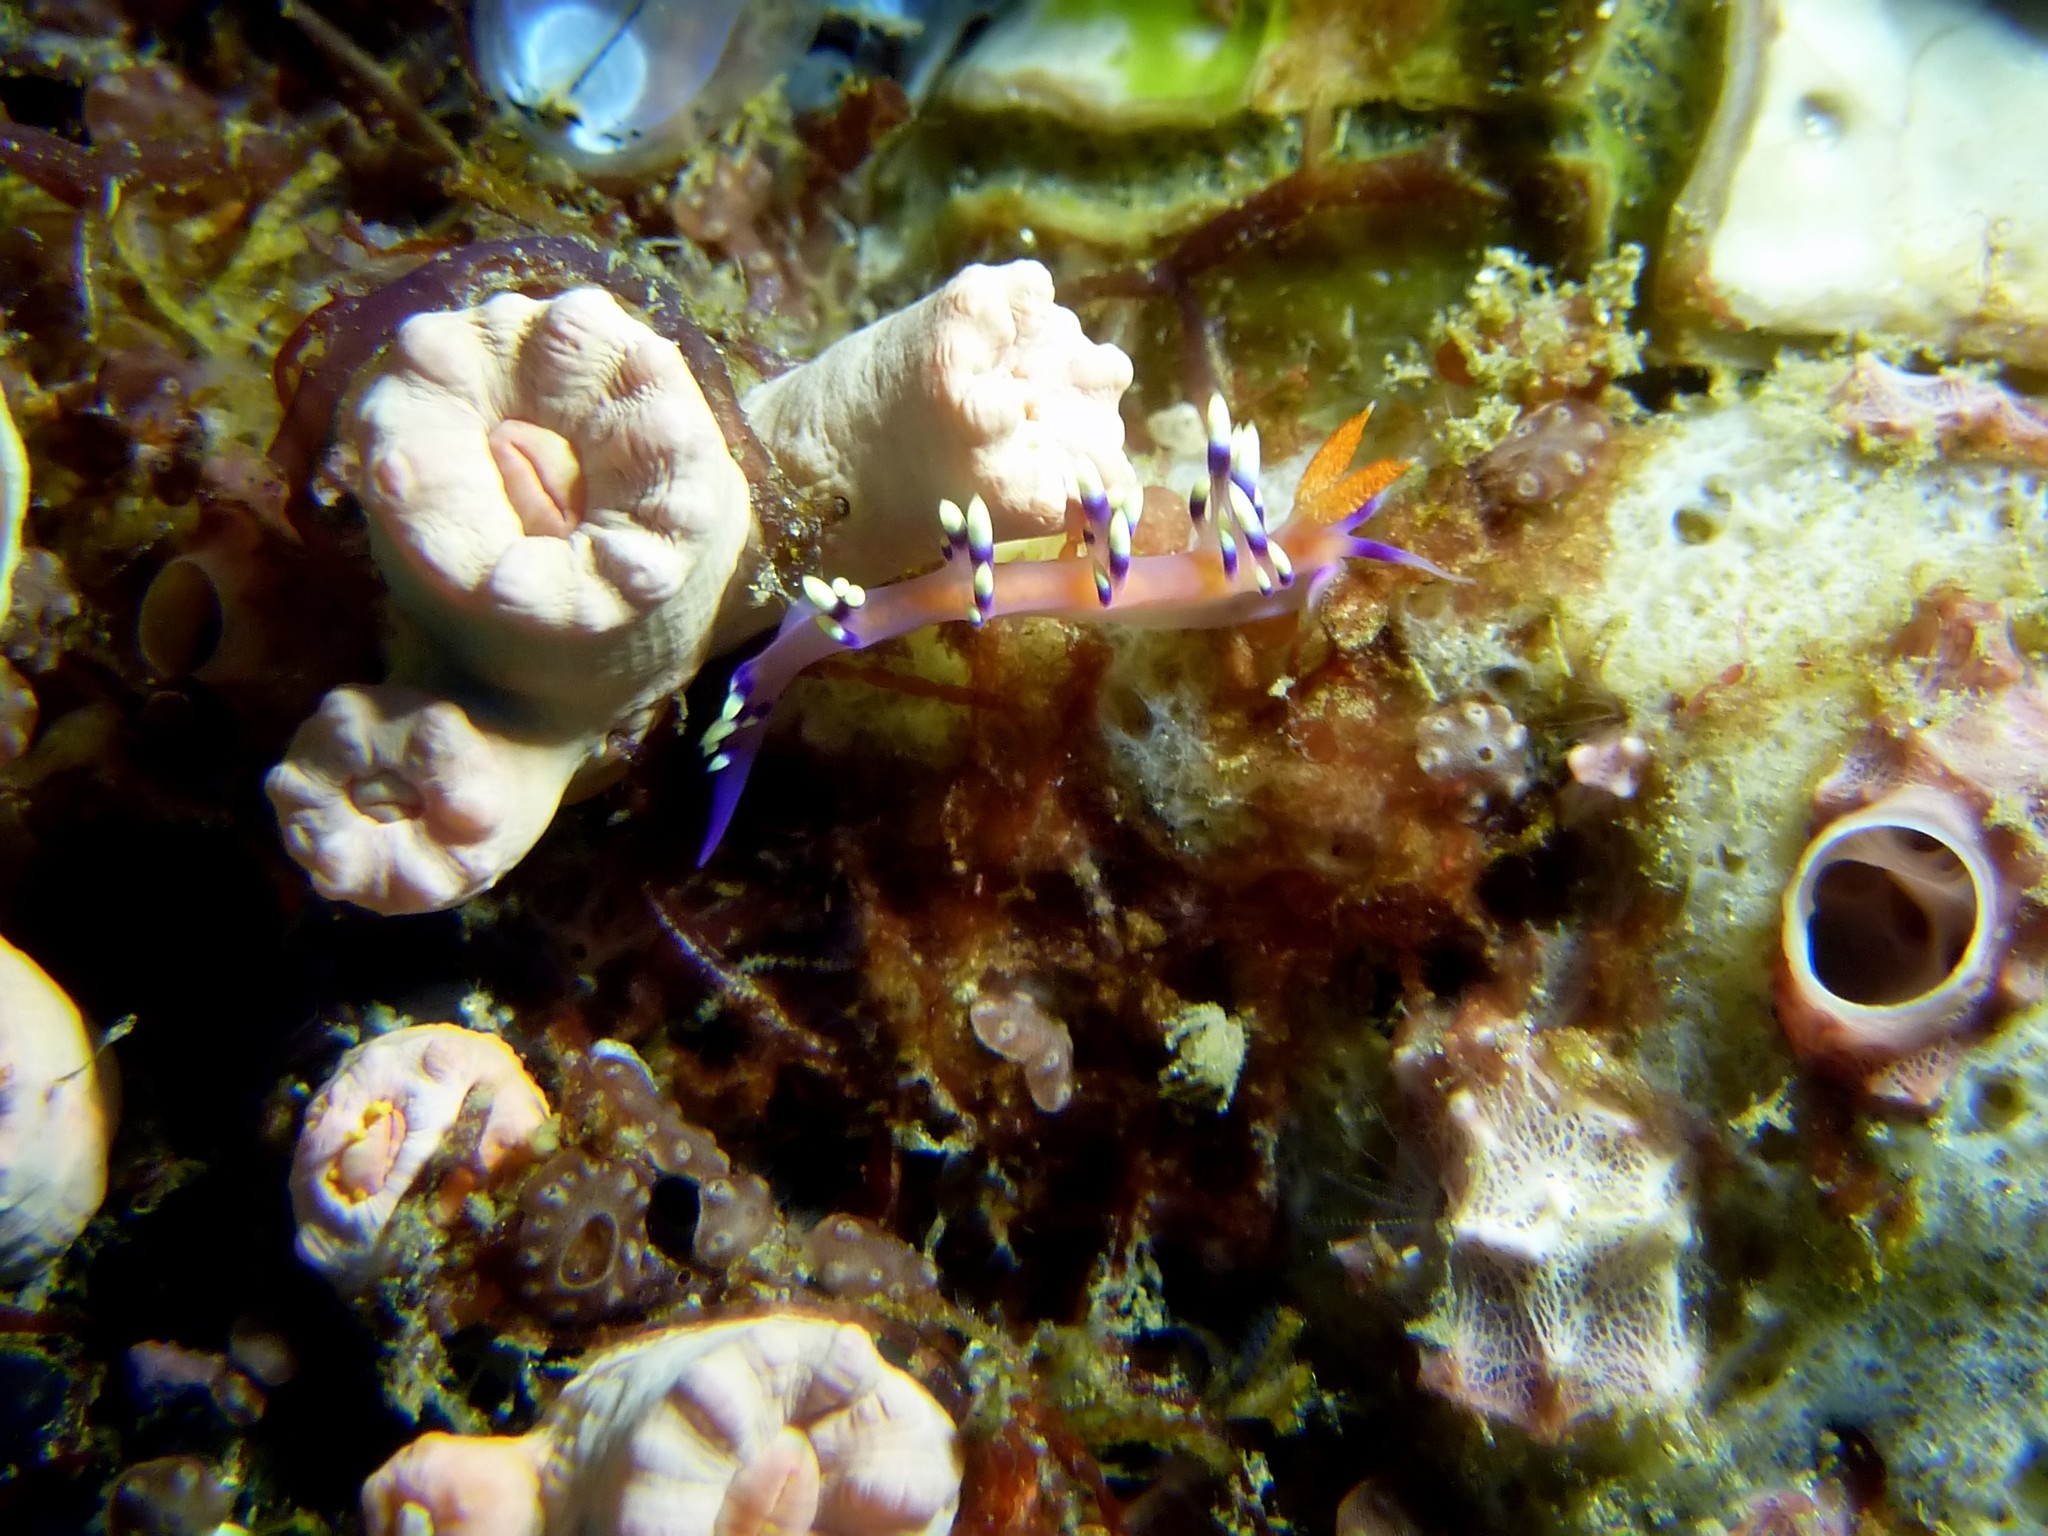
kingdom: Animalia
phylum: Mollusca
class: Gastropoda
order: Nudibranchia
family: Flabellinidae
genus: Coryphellina
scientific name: Coryphellina exoptata
